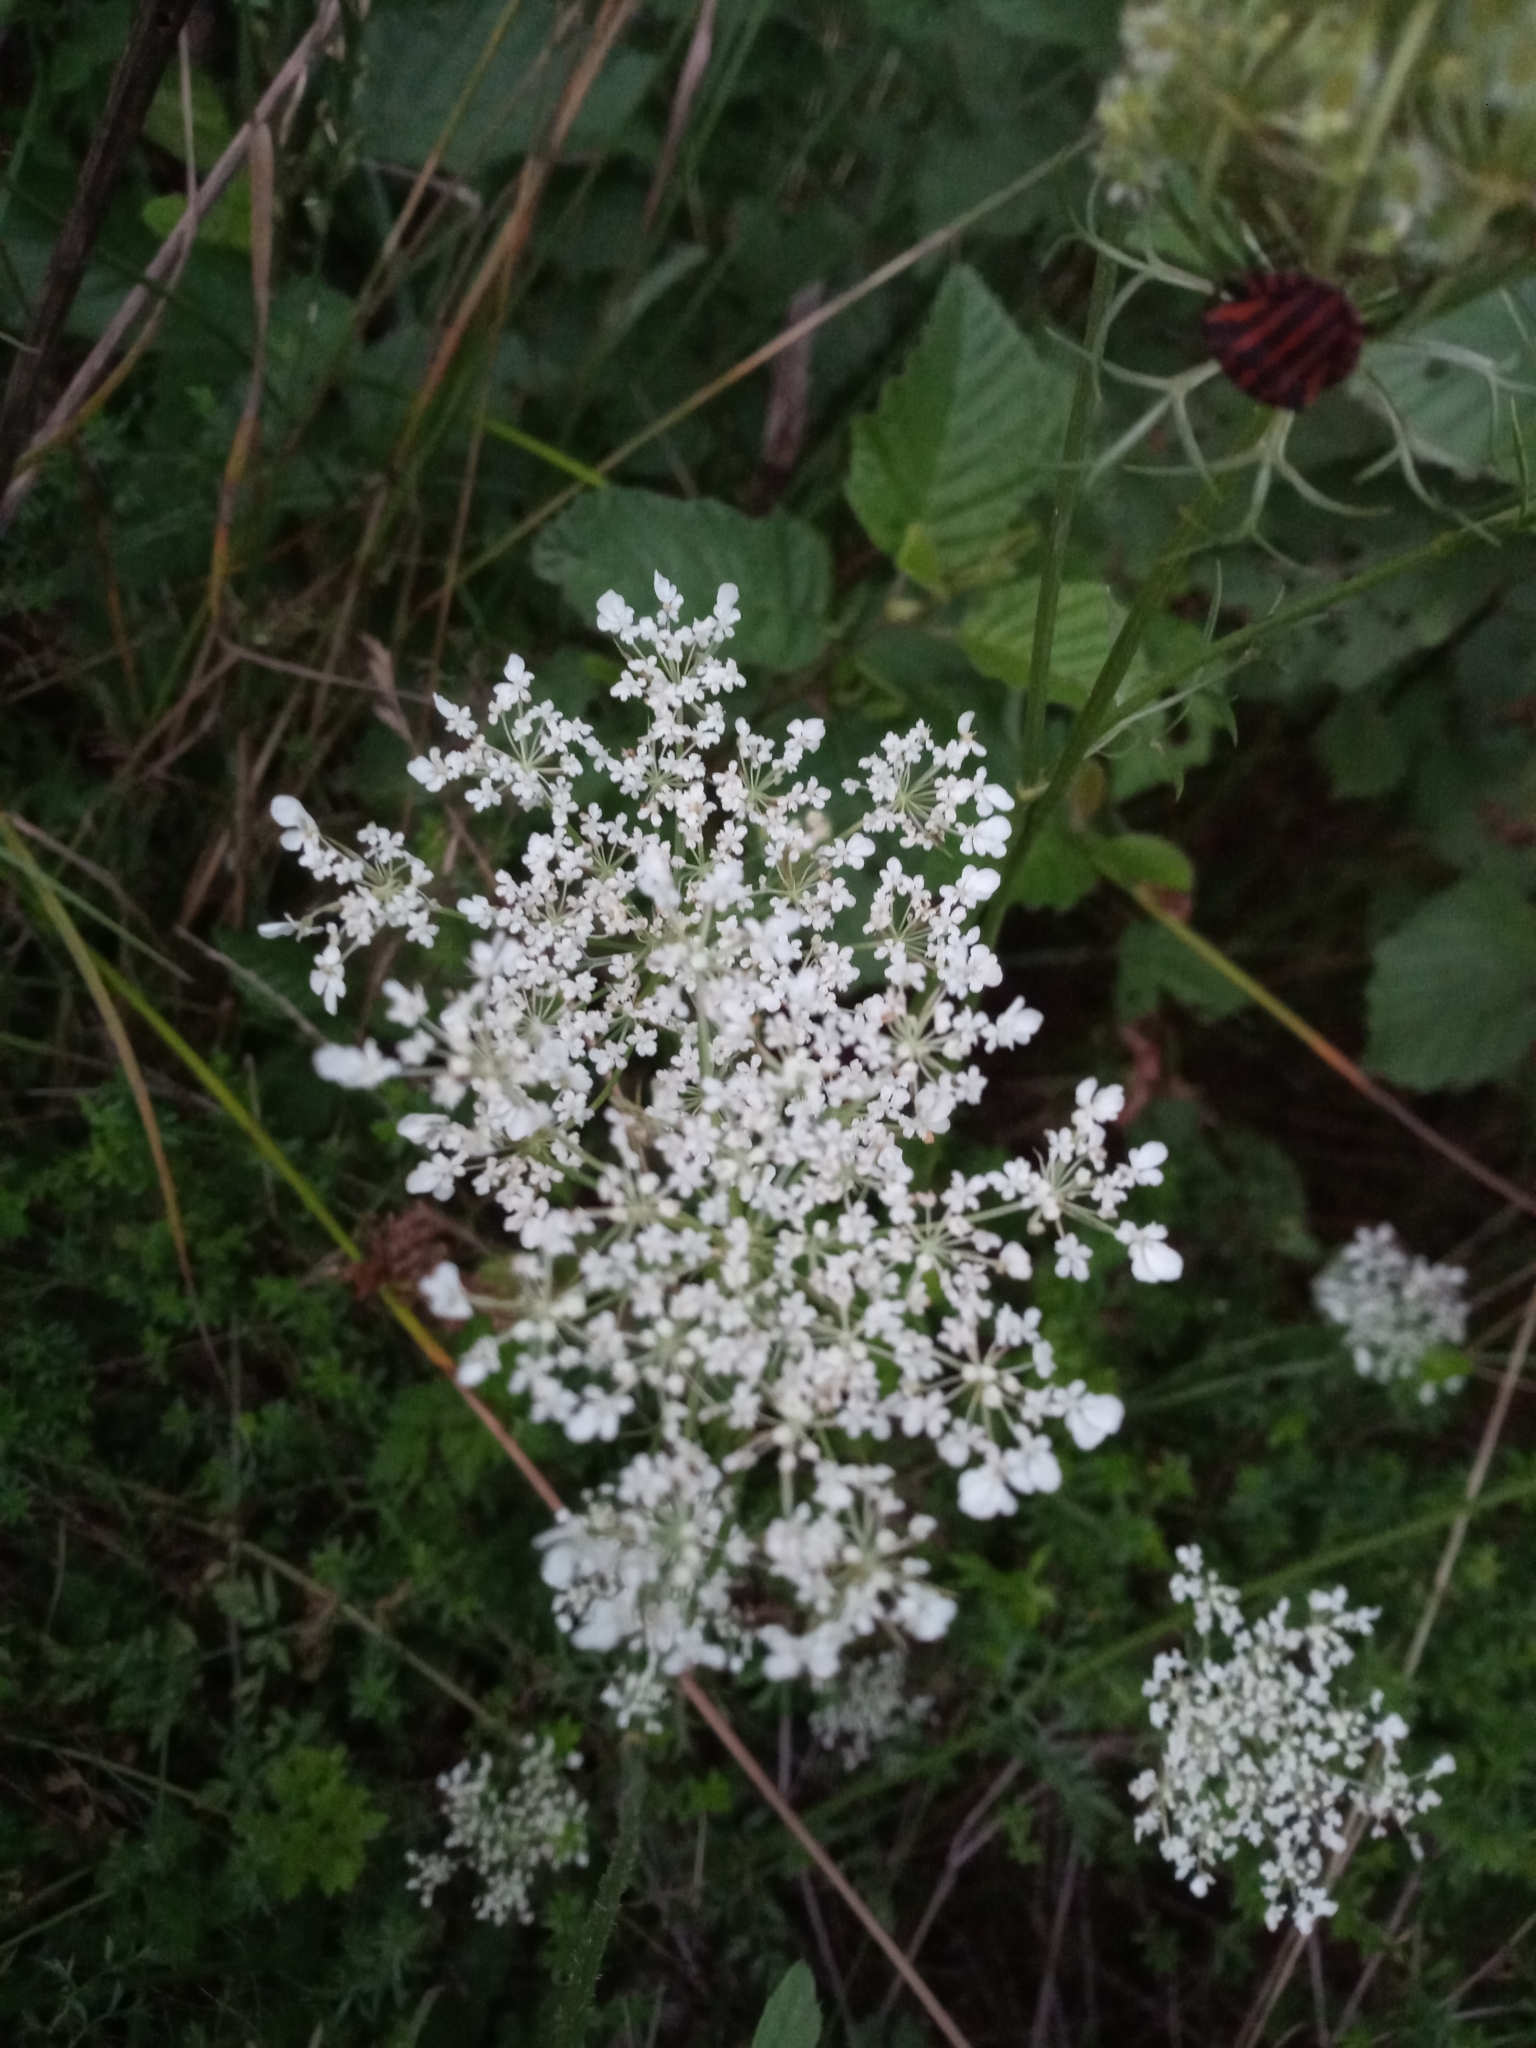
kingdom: Plantae
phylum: Tracheophyta
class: Magnoliopsida
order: Apiales
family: Apiaceae
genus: Daucus
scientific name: Daucus carota
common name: Wild carrot
